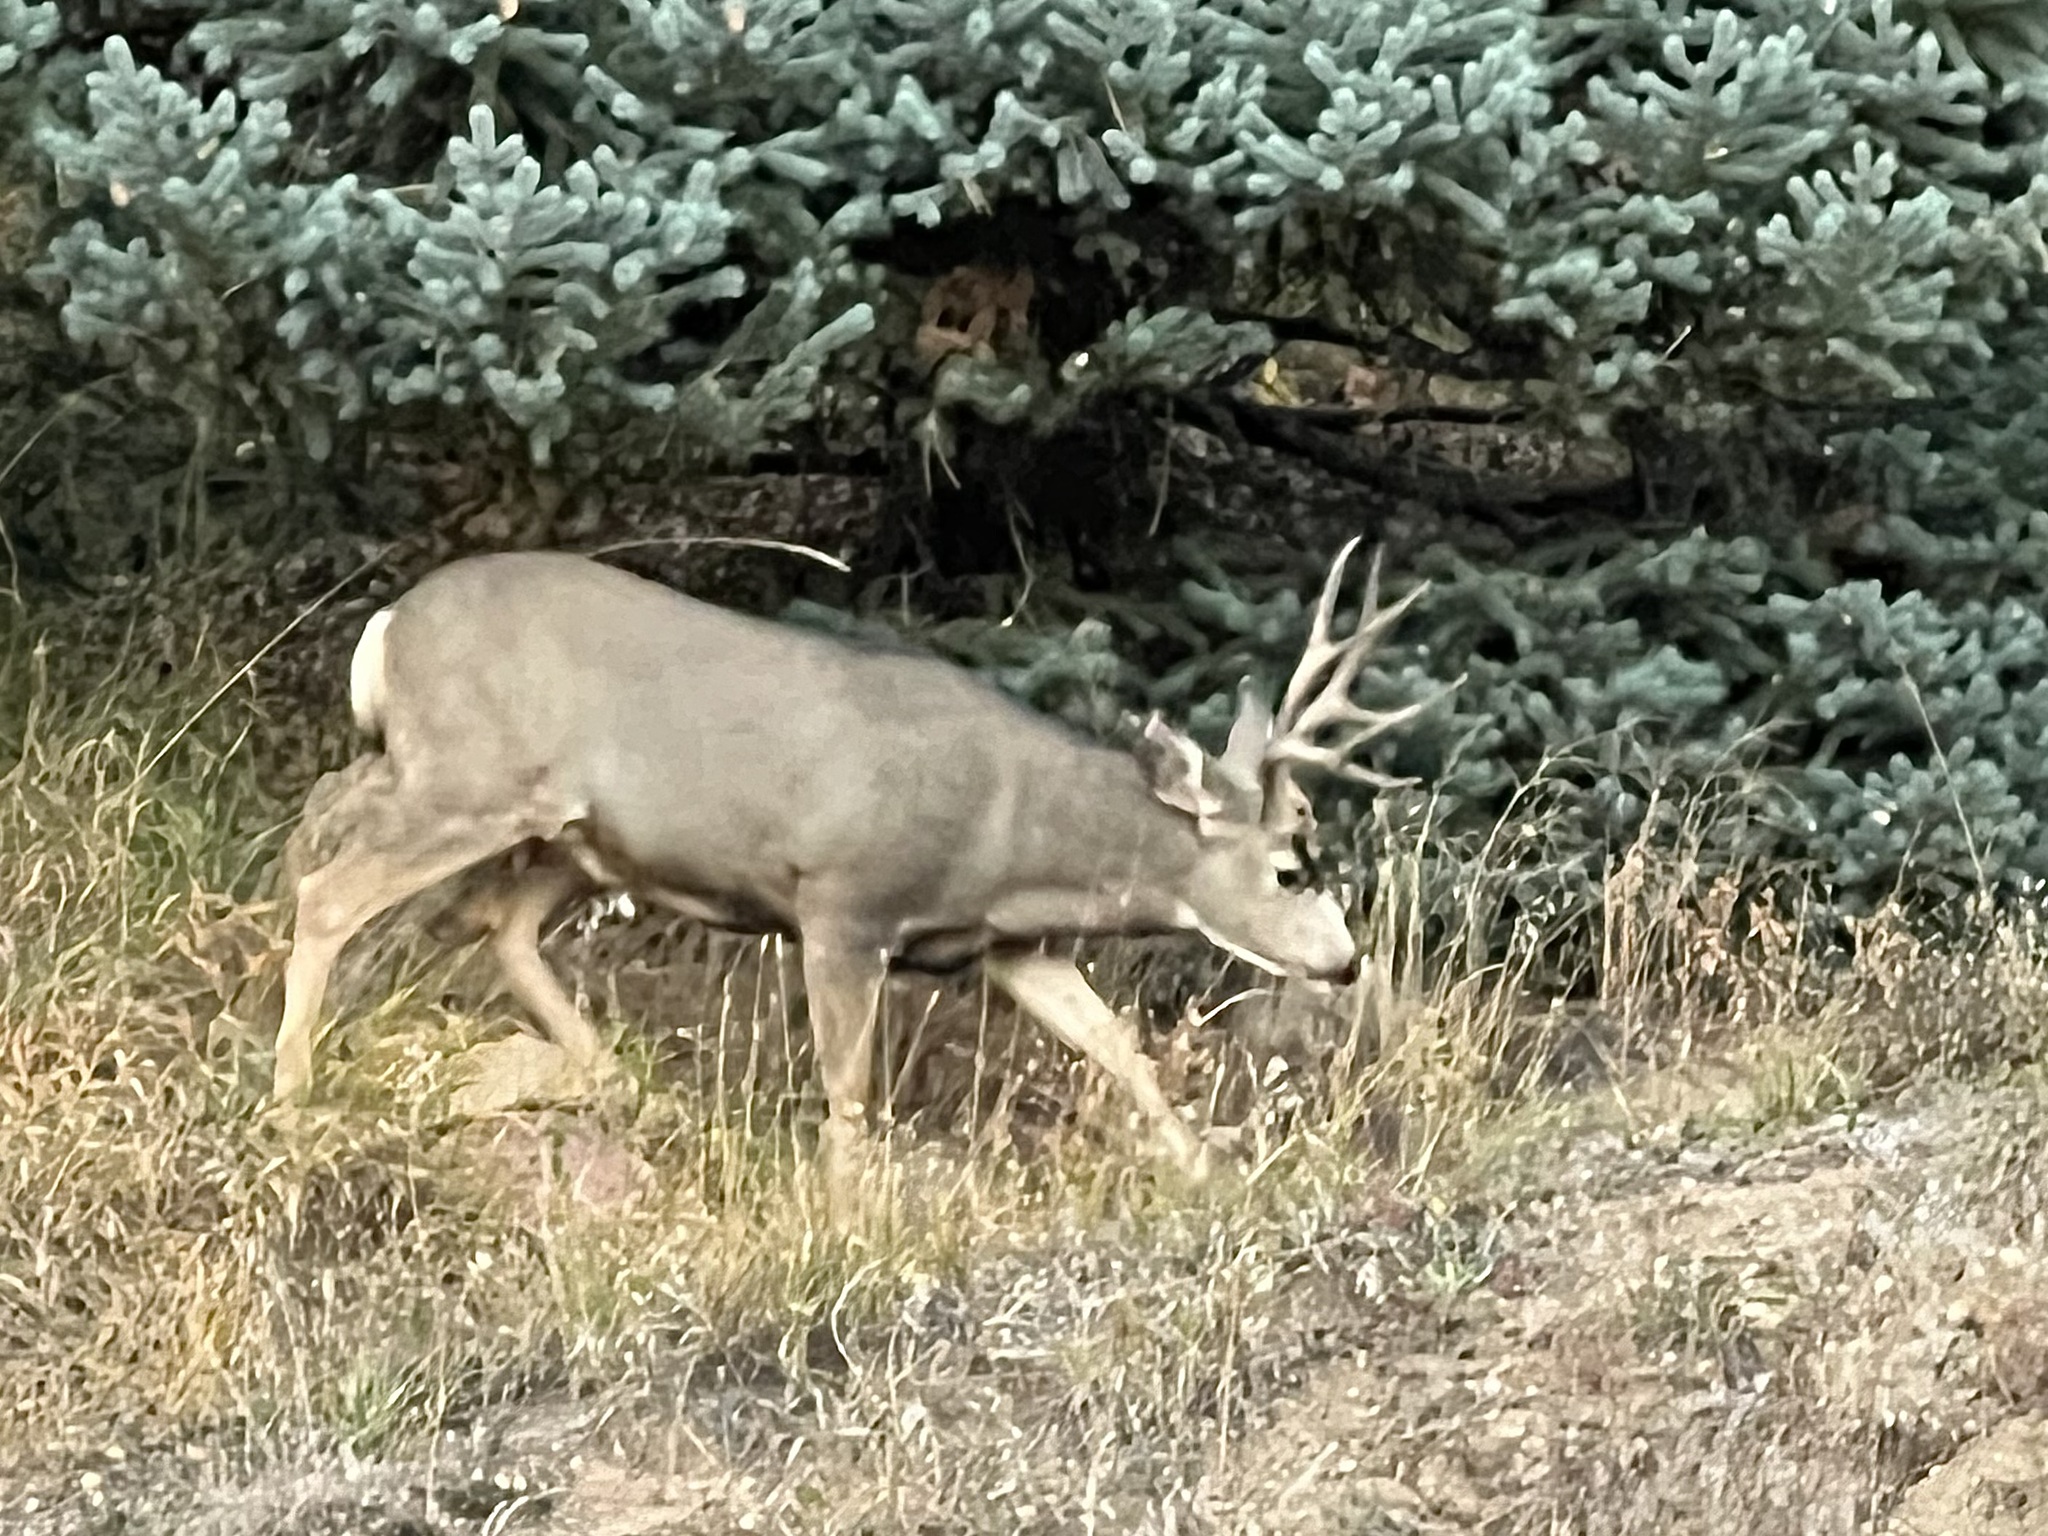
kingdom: Animalia
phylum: Chordata
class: Mammalia
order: Artiodactyla
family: Cervidae
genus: Odocoileus
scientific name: Odocoileus hemionus
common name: Mule deer
